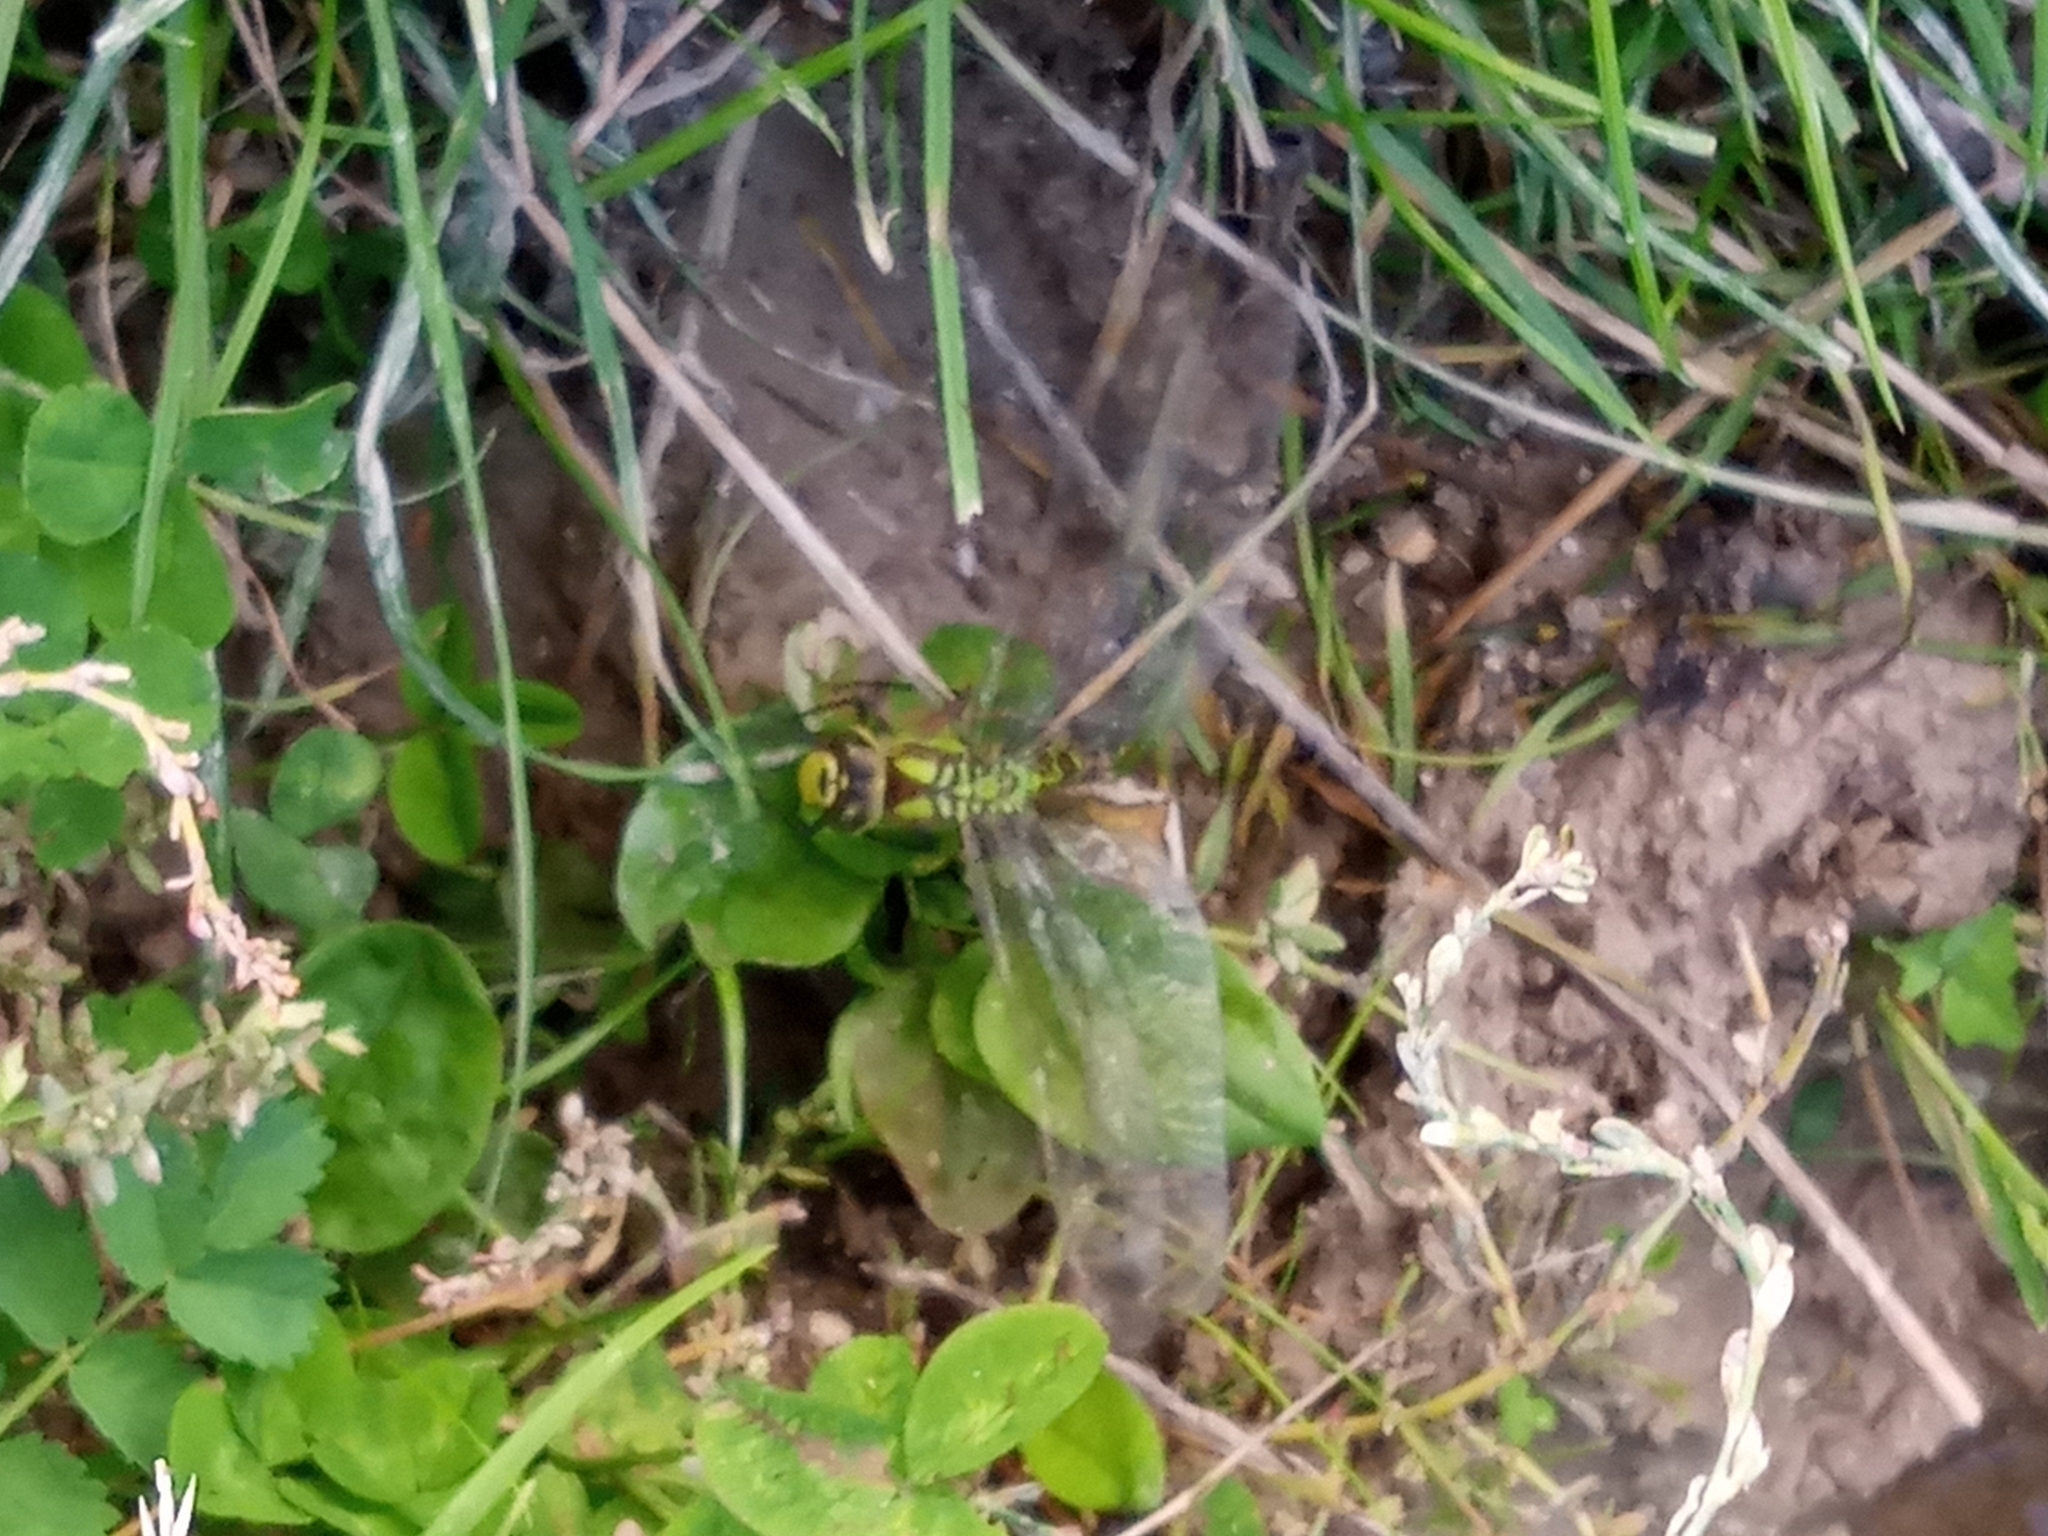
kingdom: Animalia
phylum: Arthropoda
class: Insecta
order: Odonata
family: Aeshnidae
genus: Aeshna
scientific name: Aeshna cyanea
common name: Southern hawker
